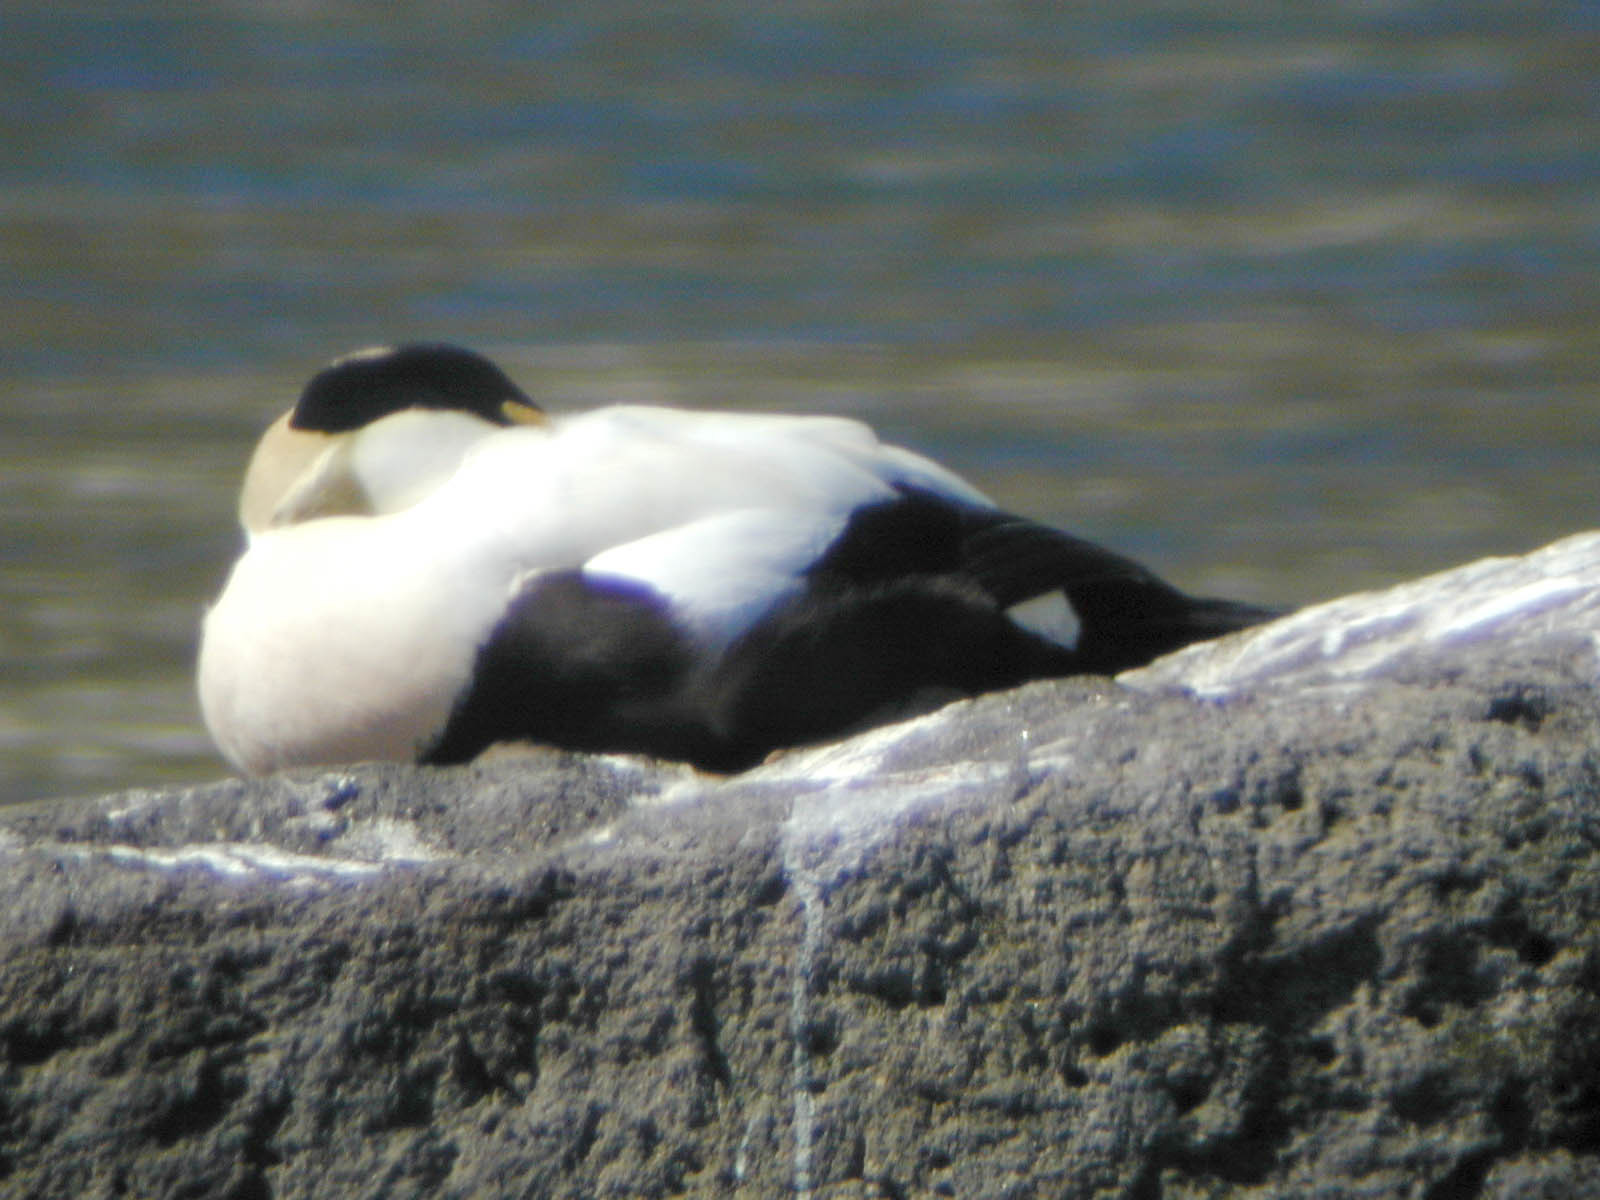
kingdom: Animalia
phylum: Chordata
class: Aves
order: Anseriformes
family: Anatidae
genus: Somateria
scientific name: Somateria mollissima
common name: Common eider
